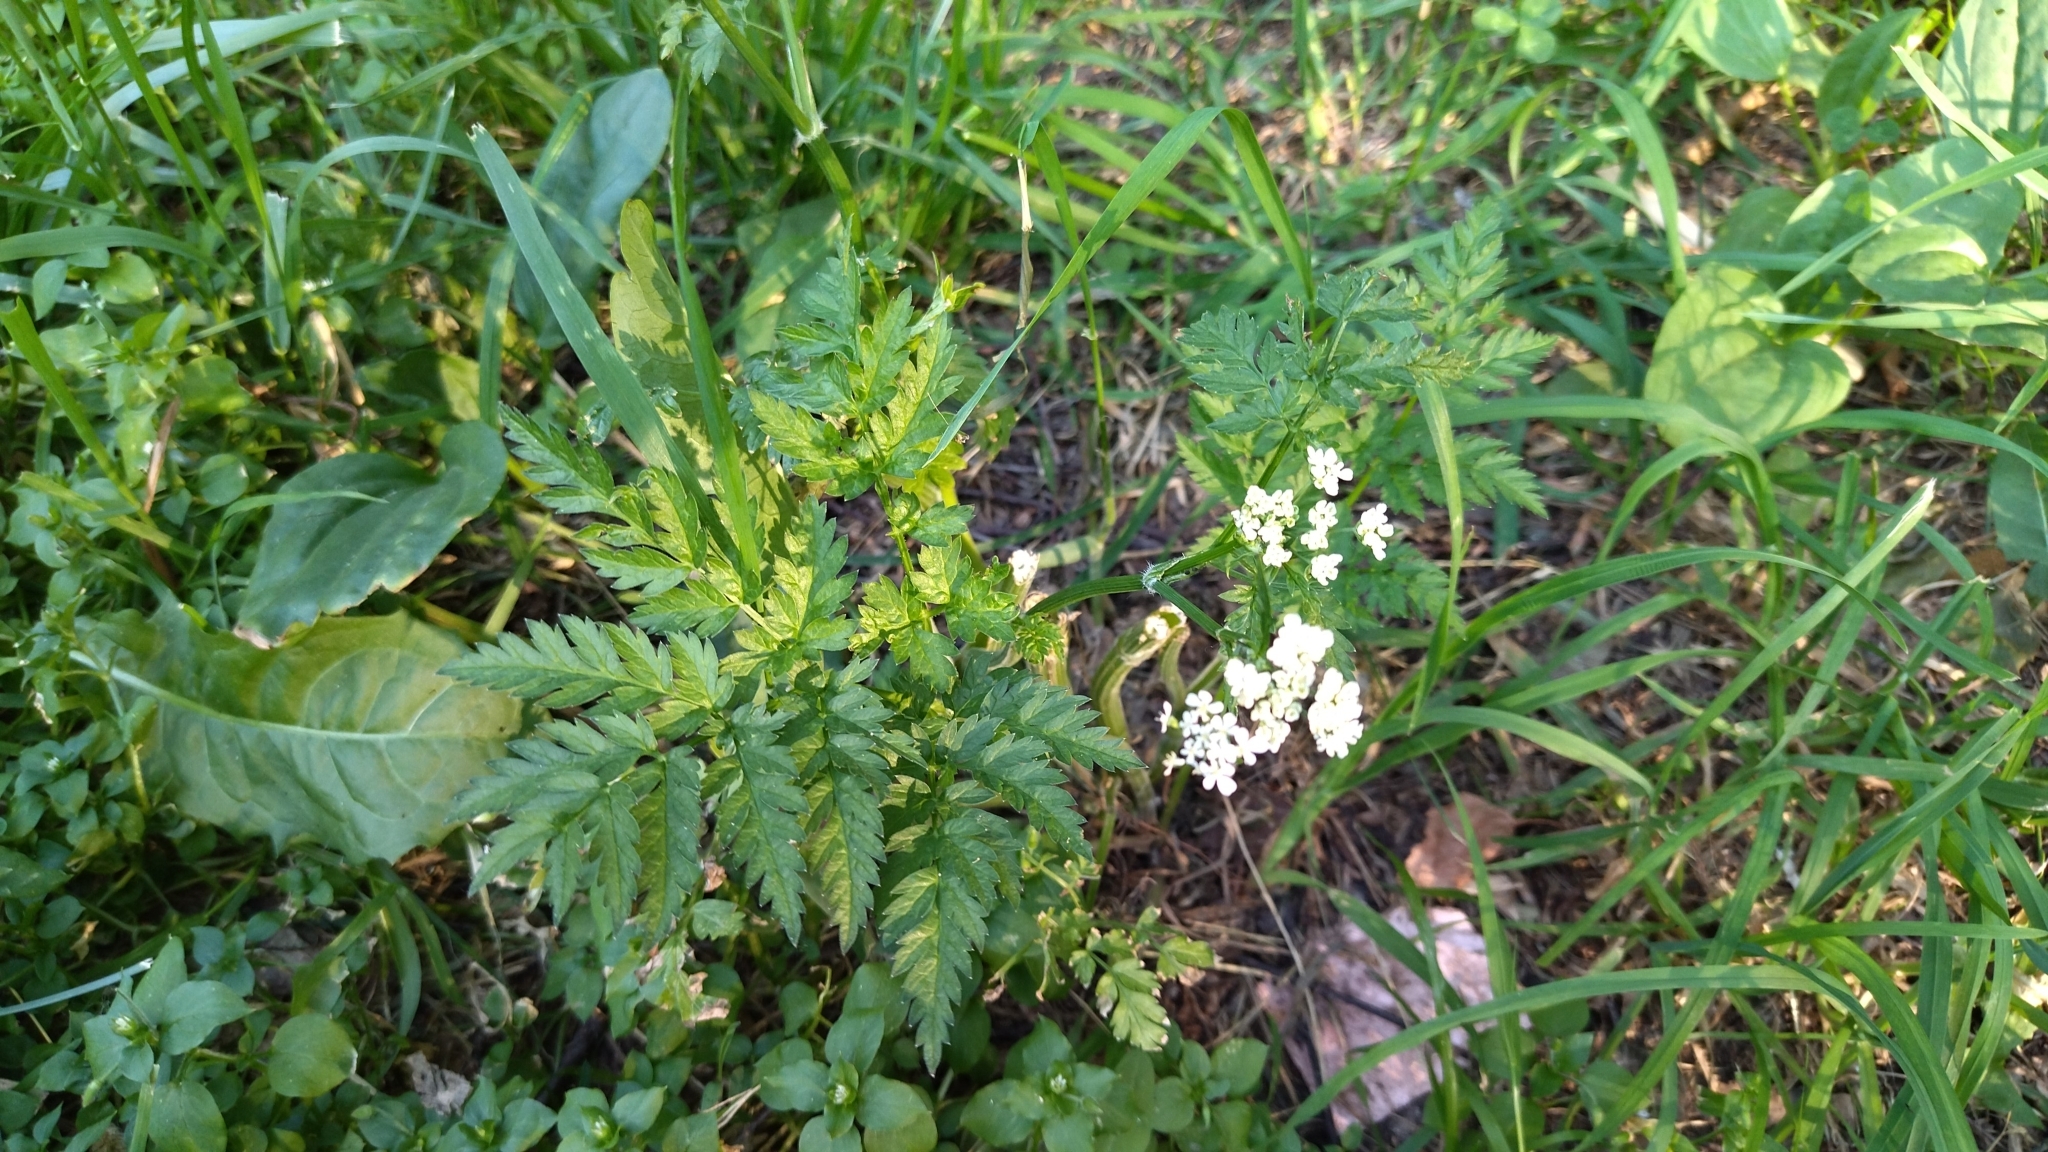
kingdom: Plantae
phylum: Tracheophyta
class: Magnoliopsida
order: Apiales
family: Apiaceae
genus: Anthriscus
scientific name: Anthriscus sylvestris
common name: Cow parsley
